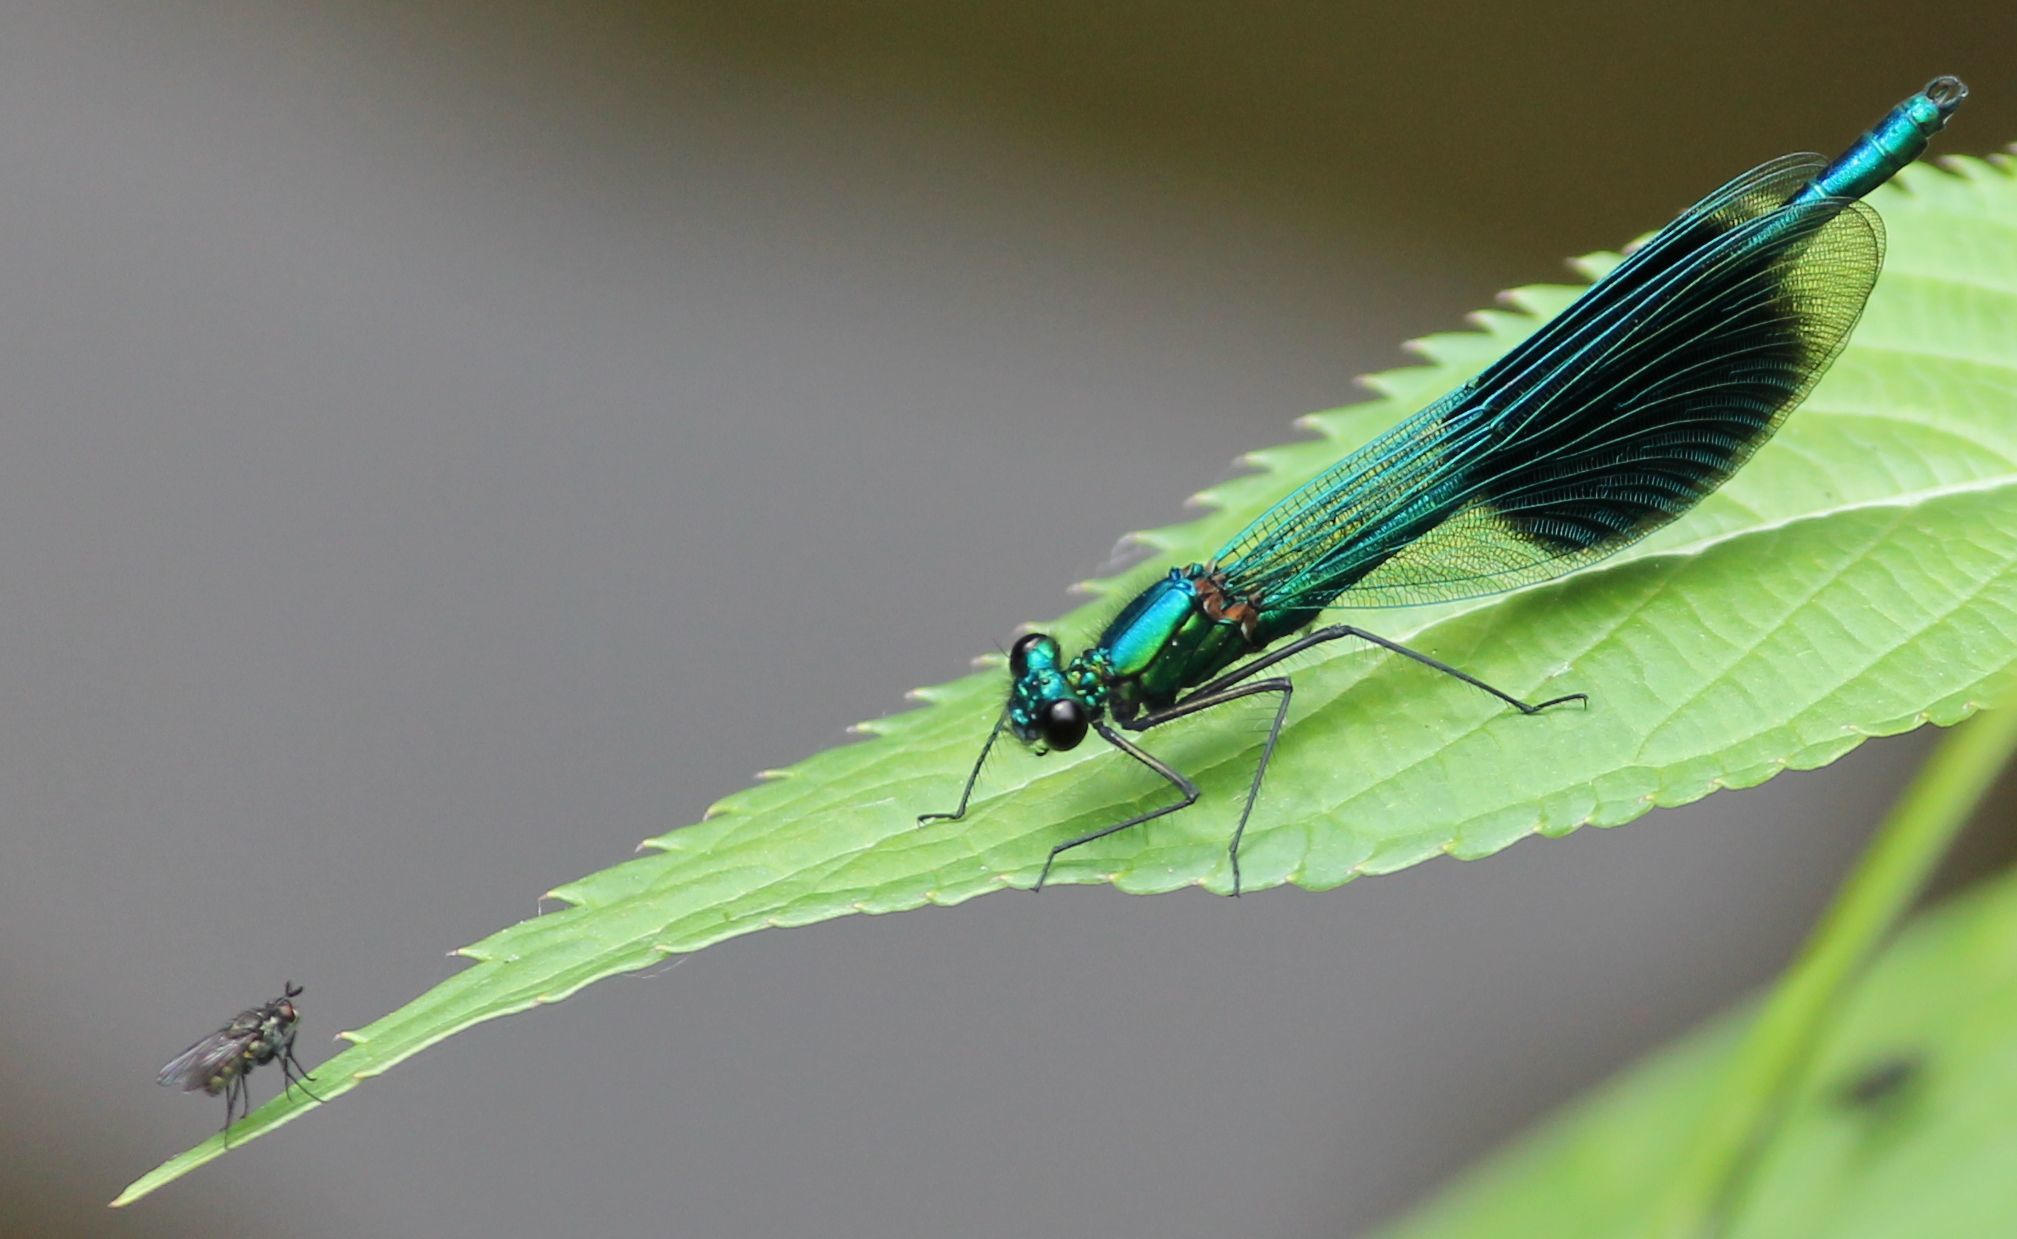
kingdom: Animalia
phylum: Arthropoda
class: Insecta
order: Odonata
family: Calopterygidae
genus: Calopteryx
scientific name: Calopteryx splendens
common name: Banded demoiselle
